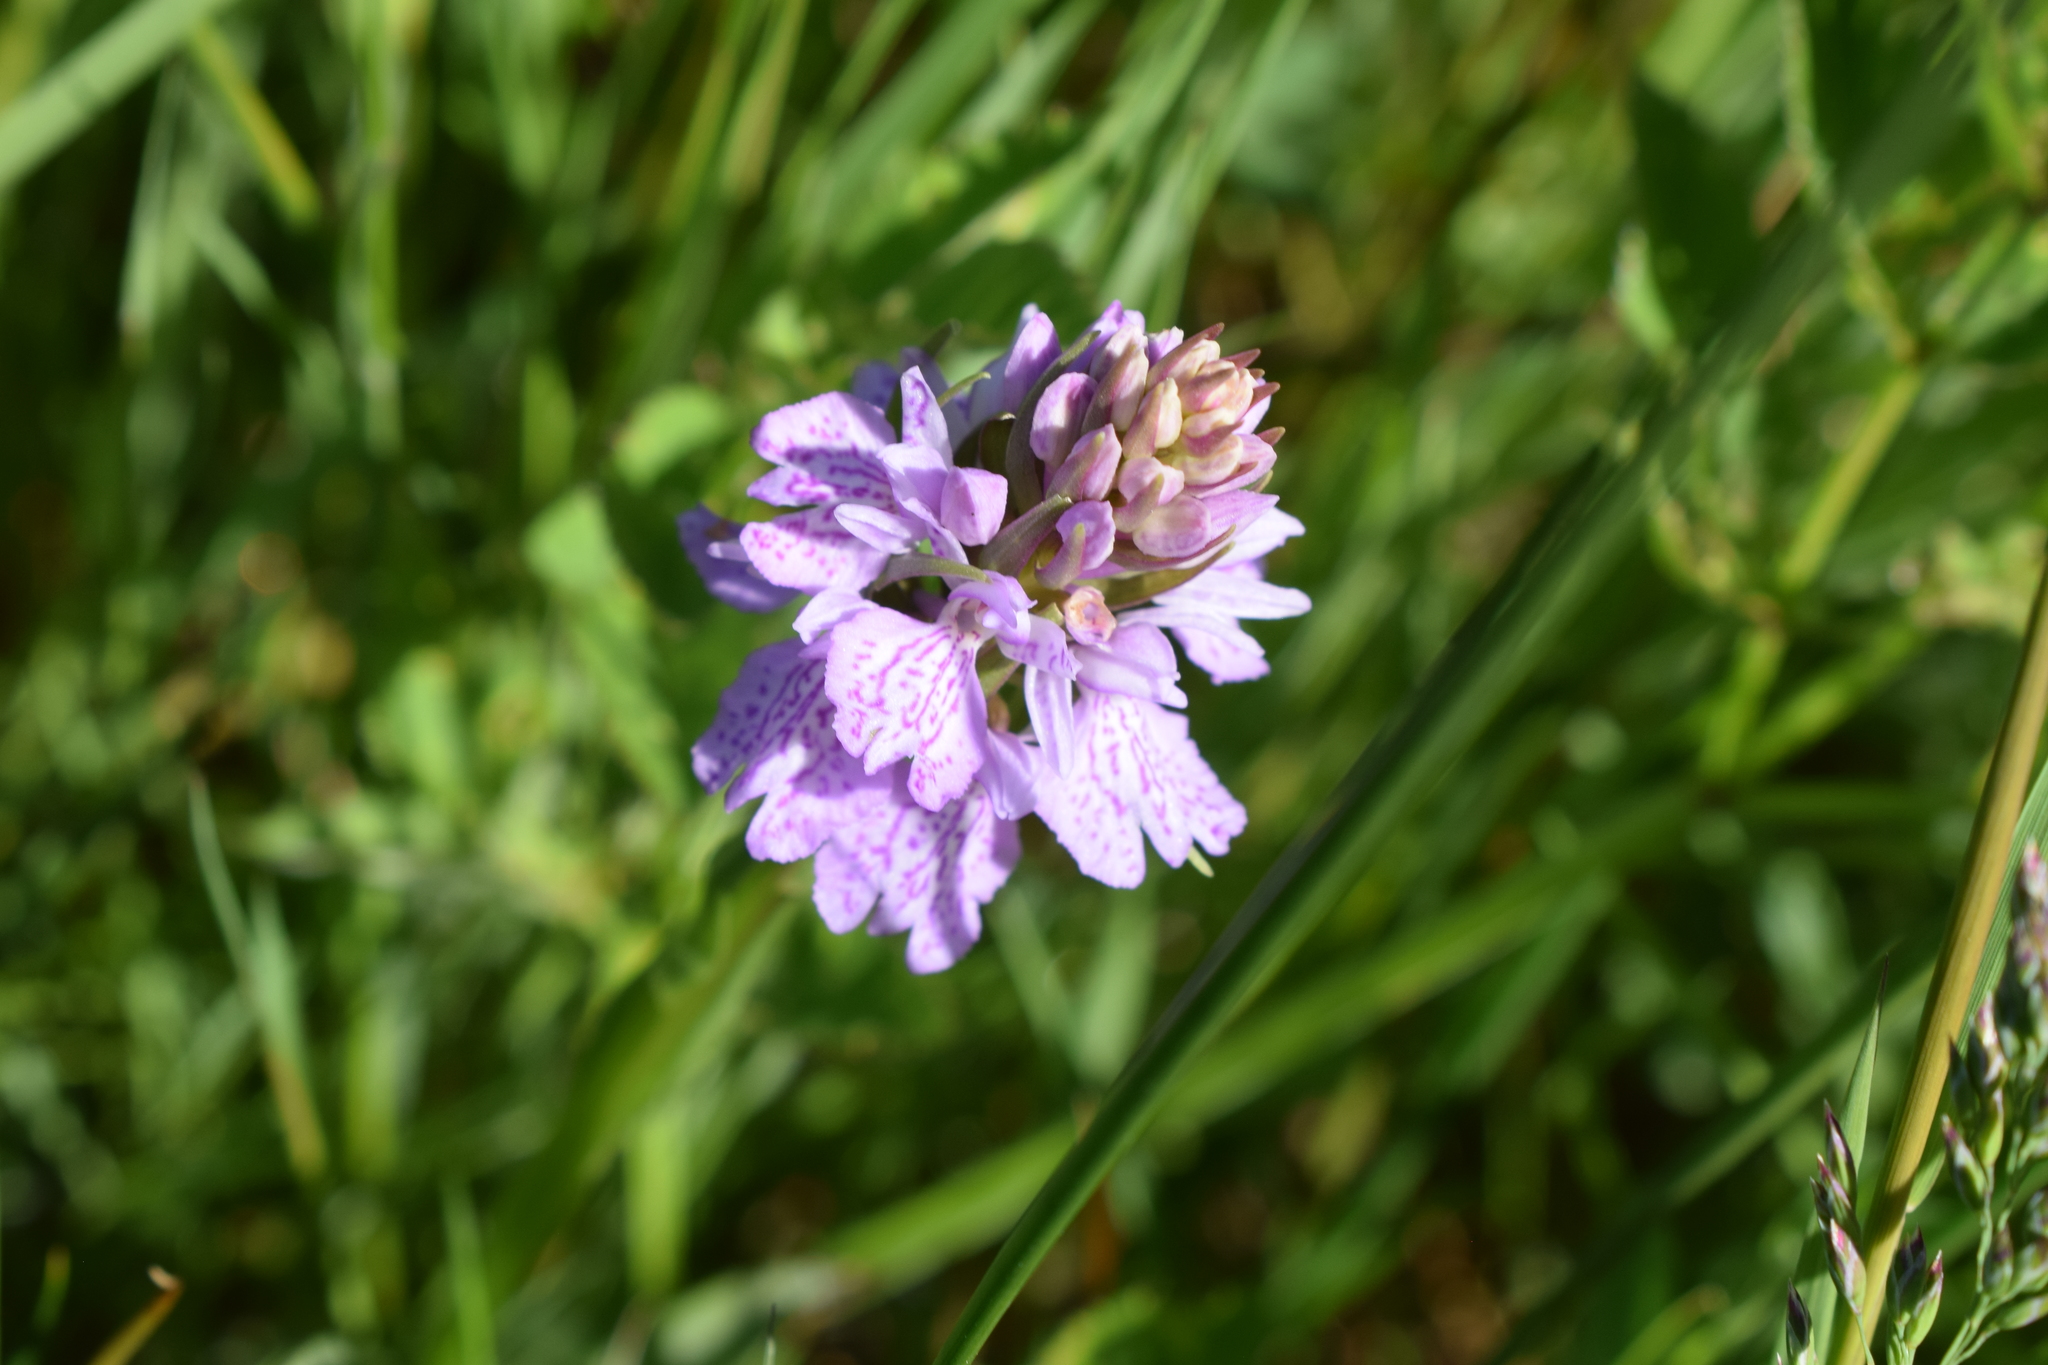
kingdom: Plantae
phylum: Tracheophyta
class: Liliopsida
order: Asparagales
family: Orchidaceae
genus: Dactylorhiza
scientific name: Dactylorhiza maculata
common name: Heath spotted-orchid
